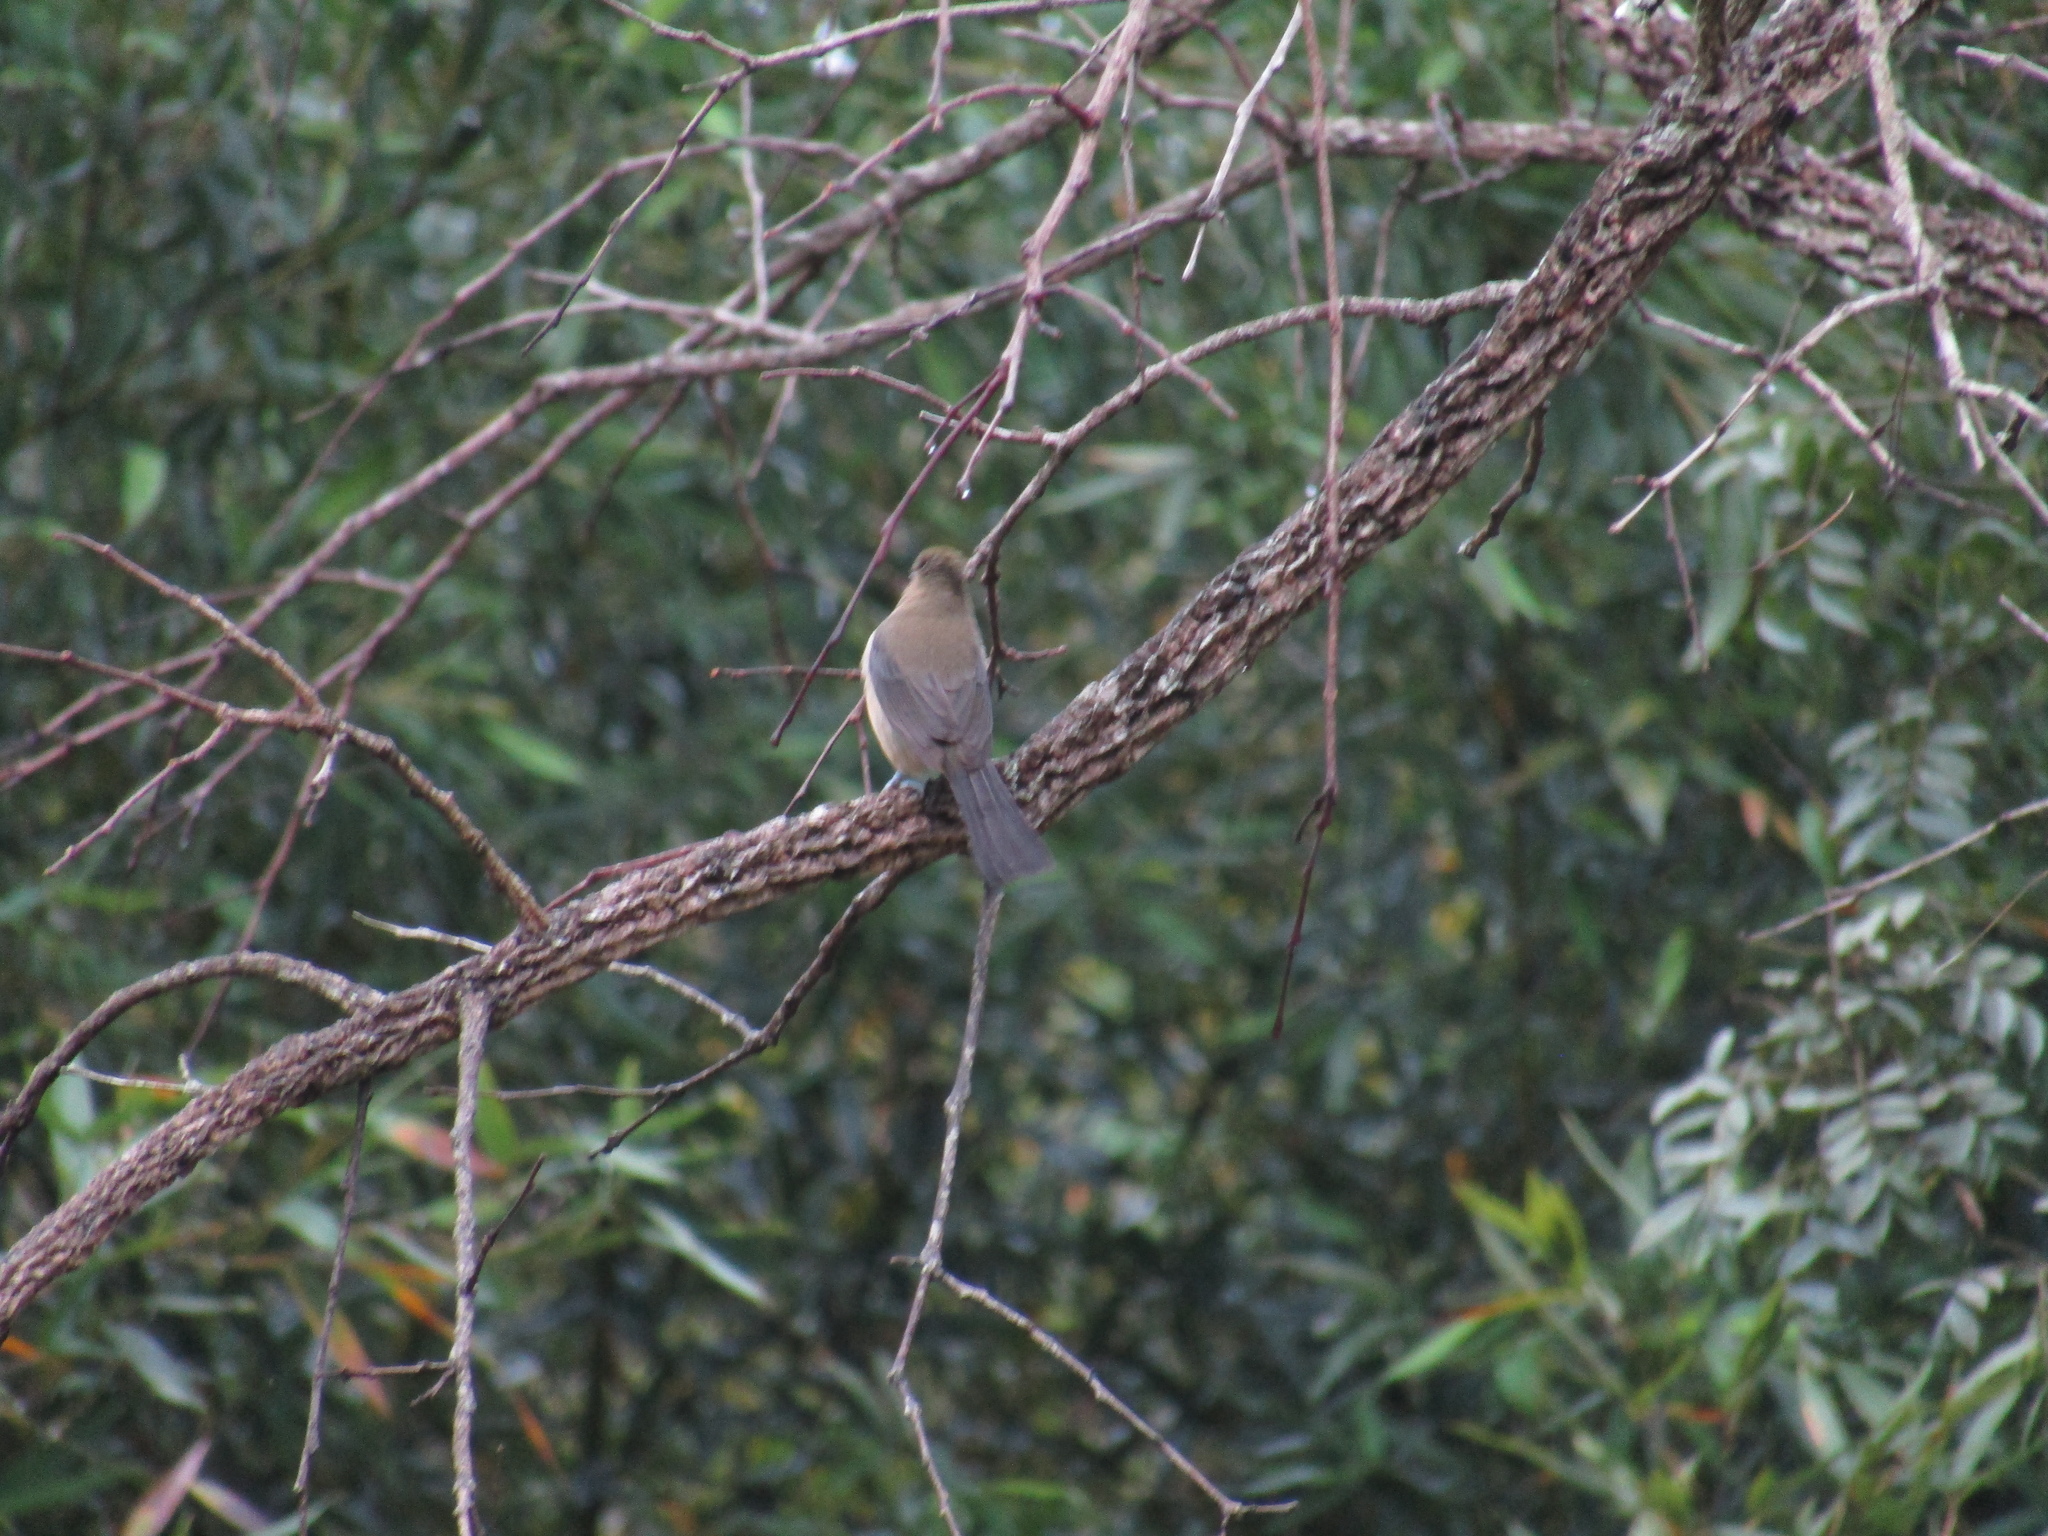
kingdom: Animalia
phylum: Chordata
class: Aves
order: Passeriformes
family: Thraupidae
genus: Trichothraupis
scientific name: Trichothraupis melanops
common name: Black-goggled tanager
